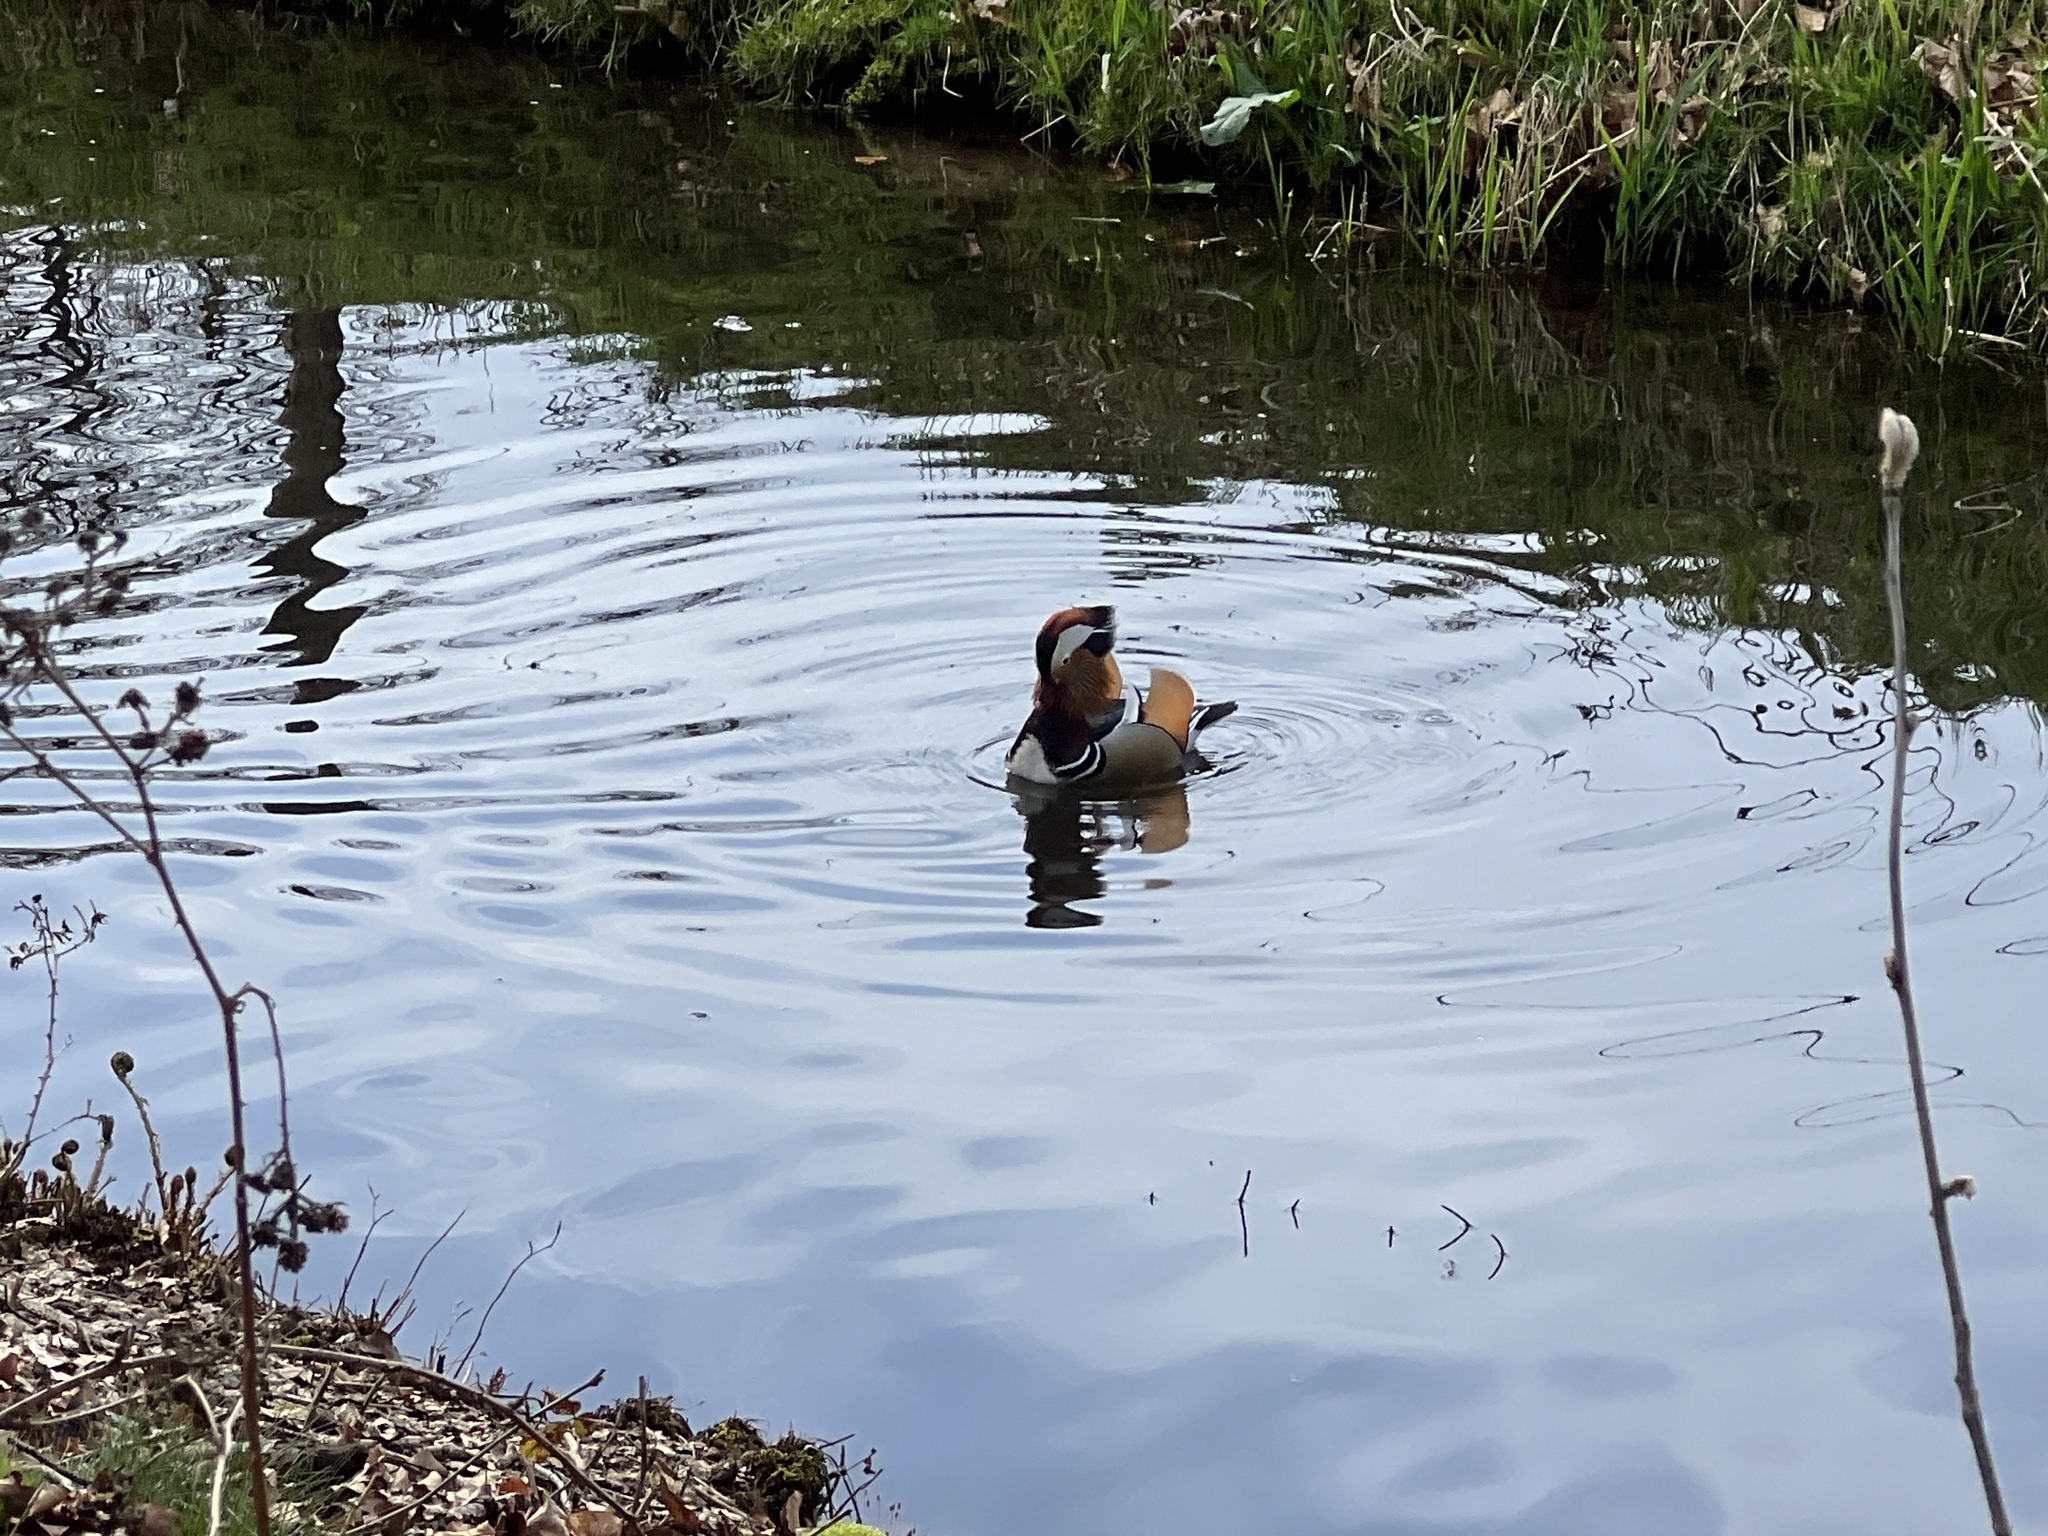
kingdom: Animalia
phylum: Chordata
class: Aves
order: Anseriformes
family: Anatidae
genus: Aix
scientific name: Aix galericulata
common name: Mandarin duck
